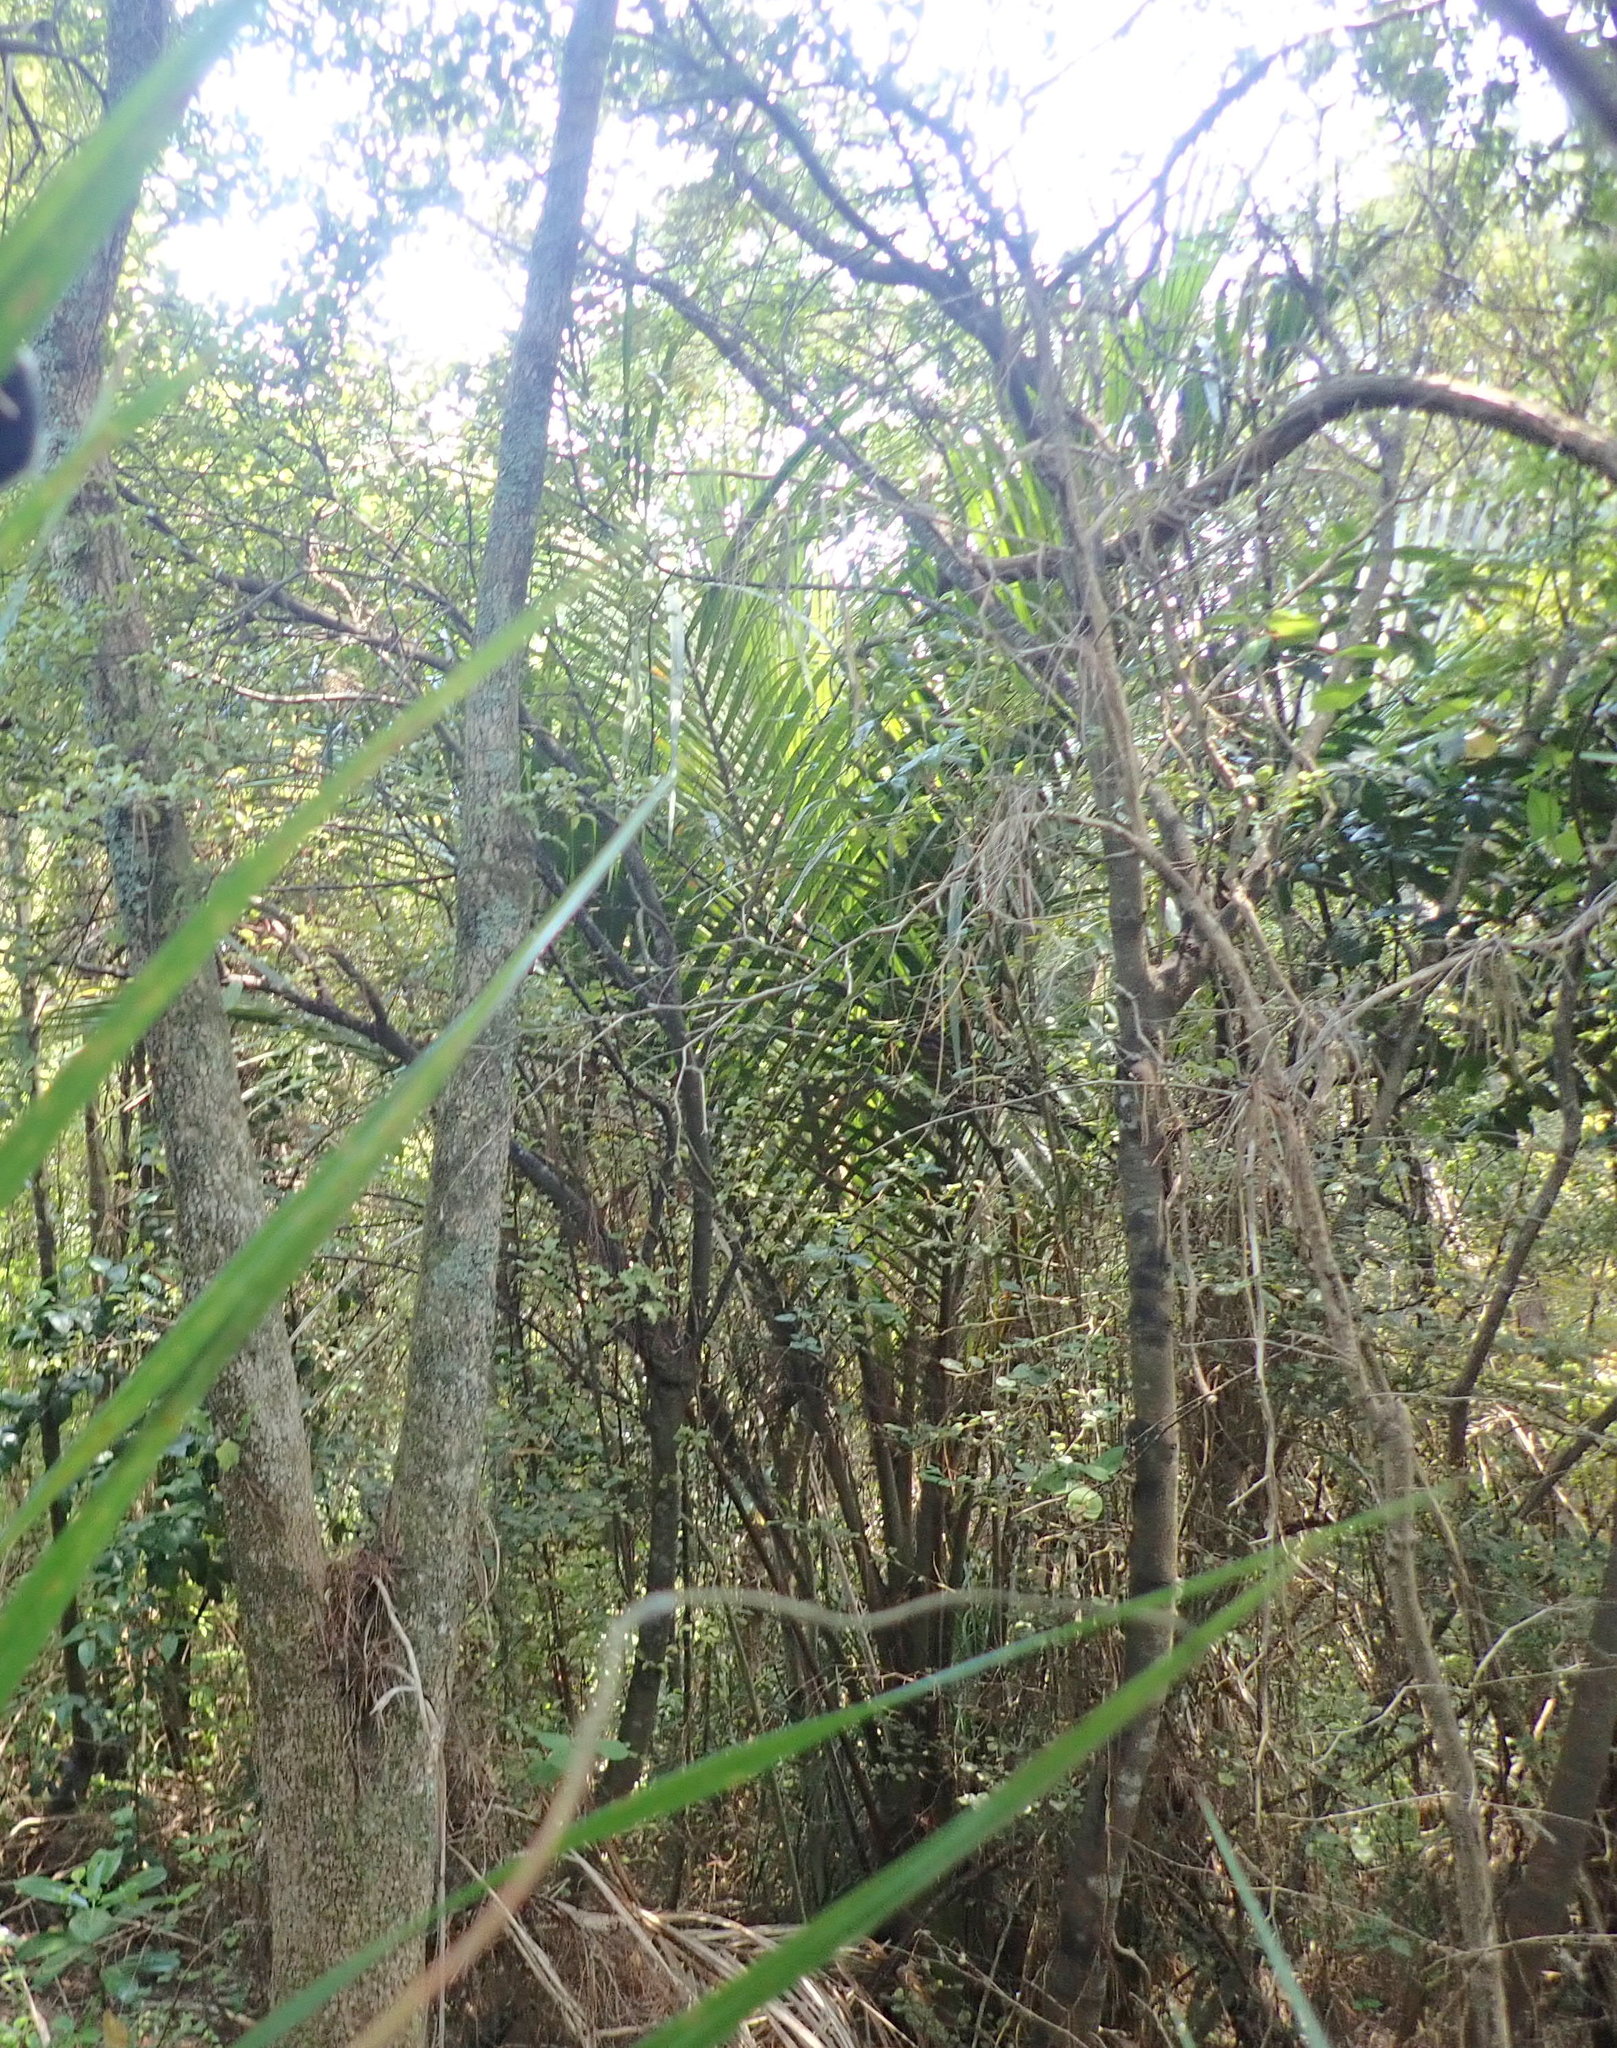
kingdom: Plantae
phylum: Tracheophyta
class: Liliopsida
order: Arecales
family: Arecaceae
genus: Rhopalostylis
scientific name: Rhopalostylis sapida
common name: Feather-duster palm
